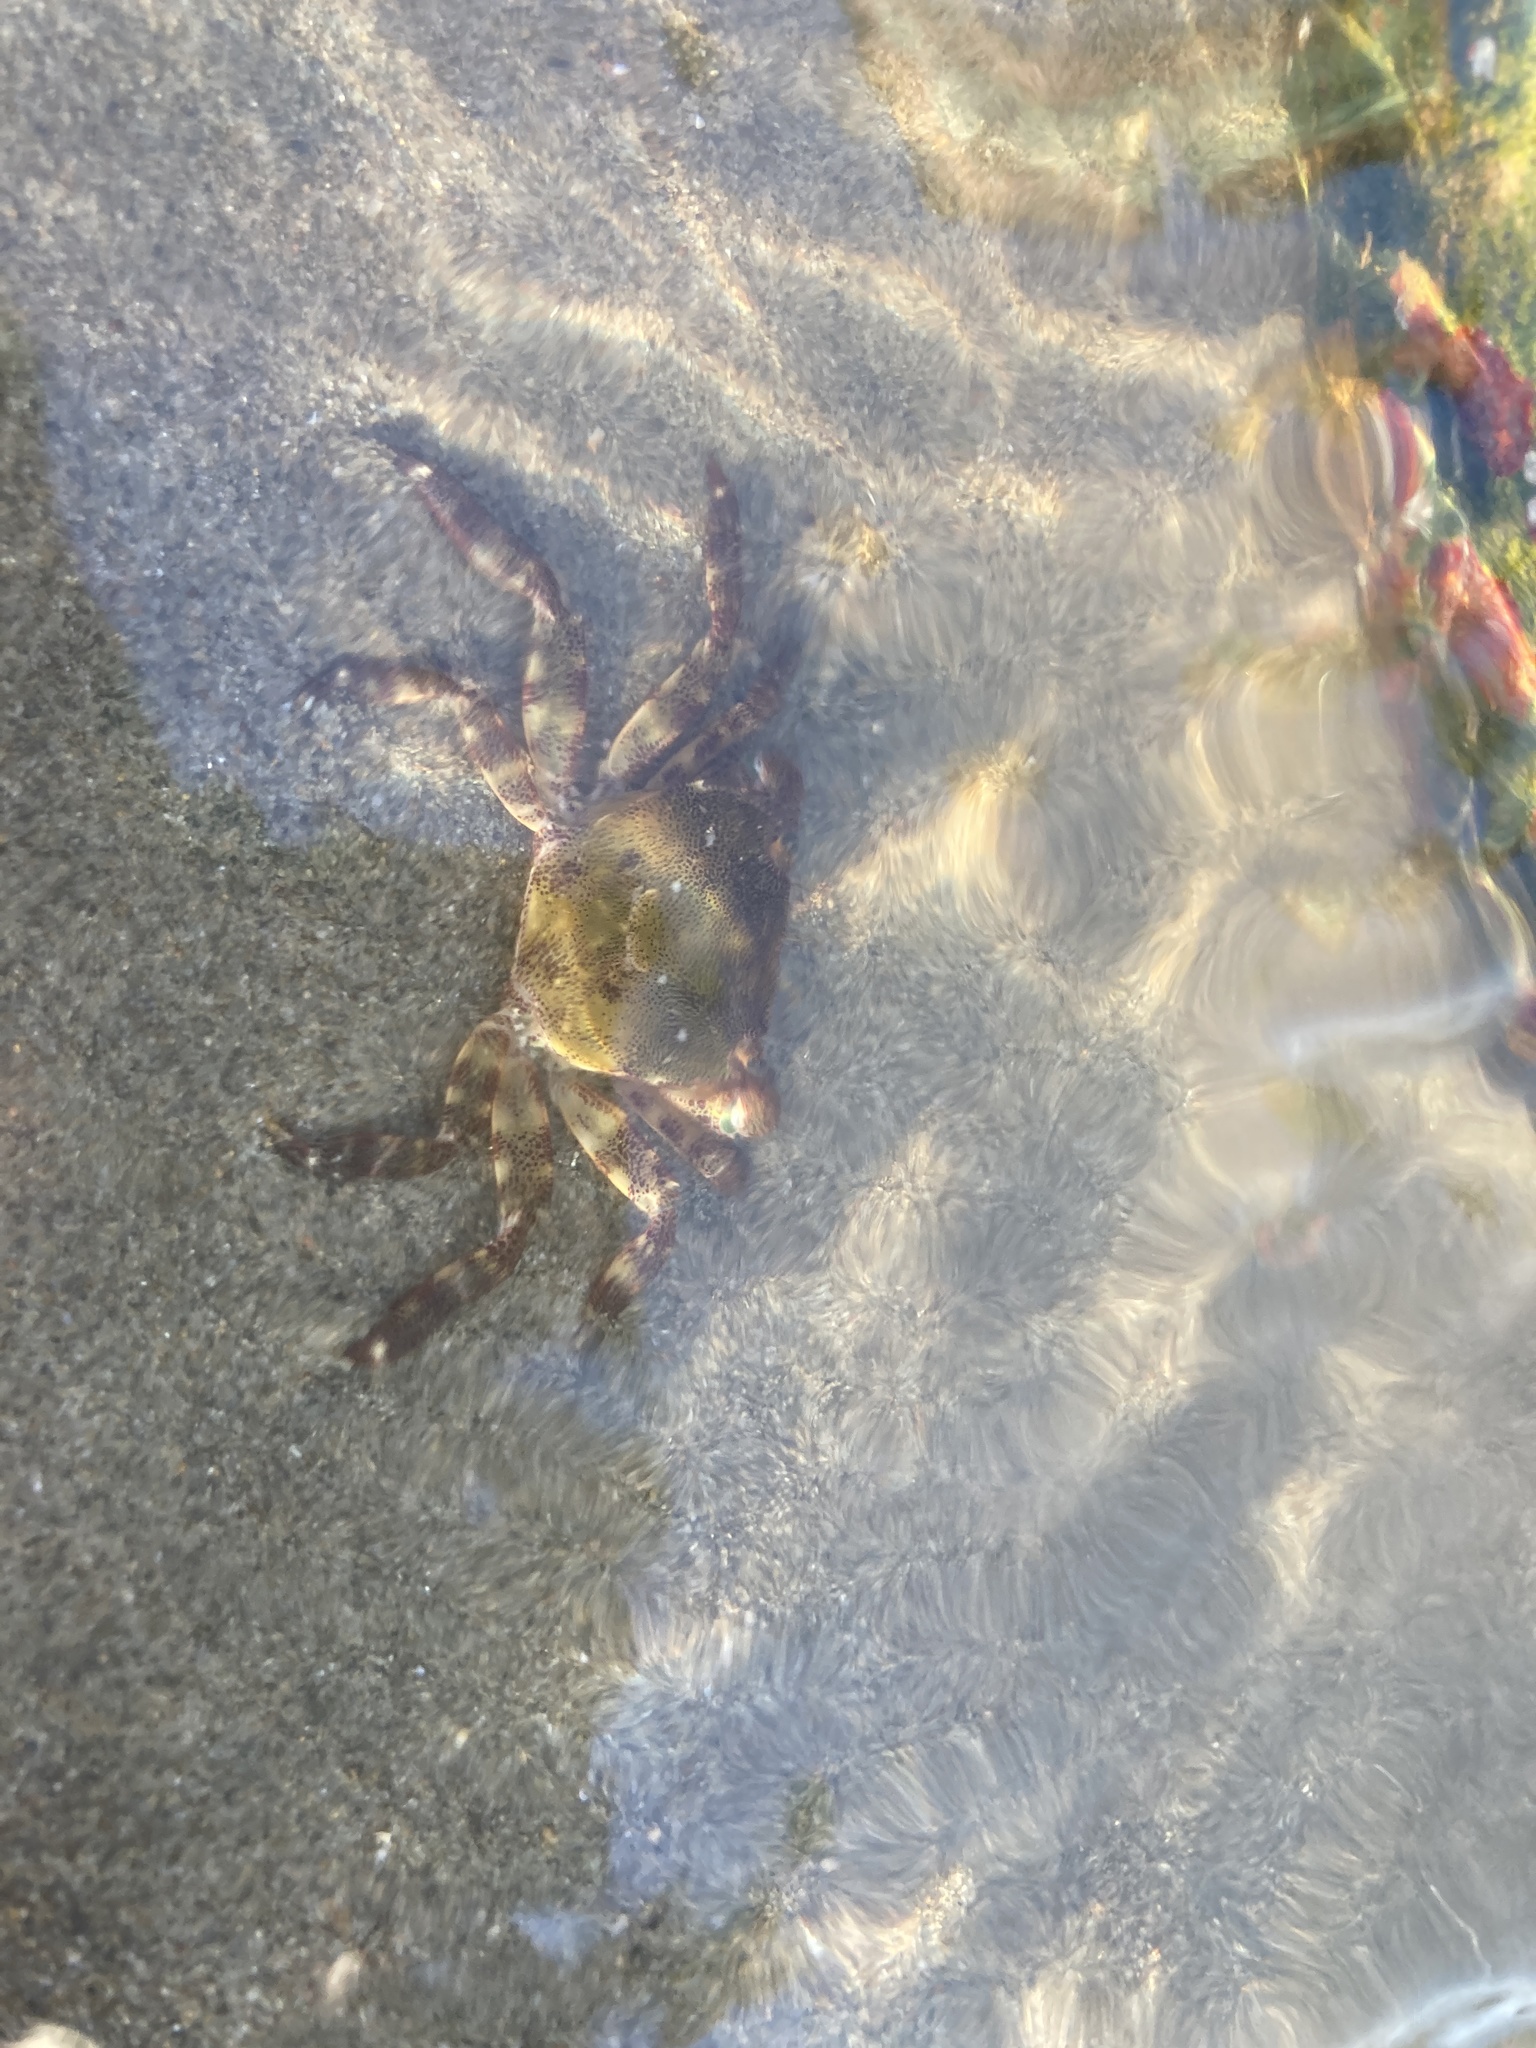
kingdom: Animalia
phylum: Arthropoda
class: Malacostraca
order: Decapoda
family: Varunidae
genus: Hemigrapsus
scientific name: Hemigrapsus sanguineus
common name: Asian shore crab
